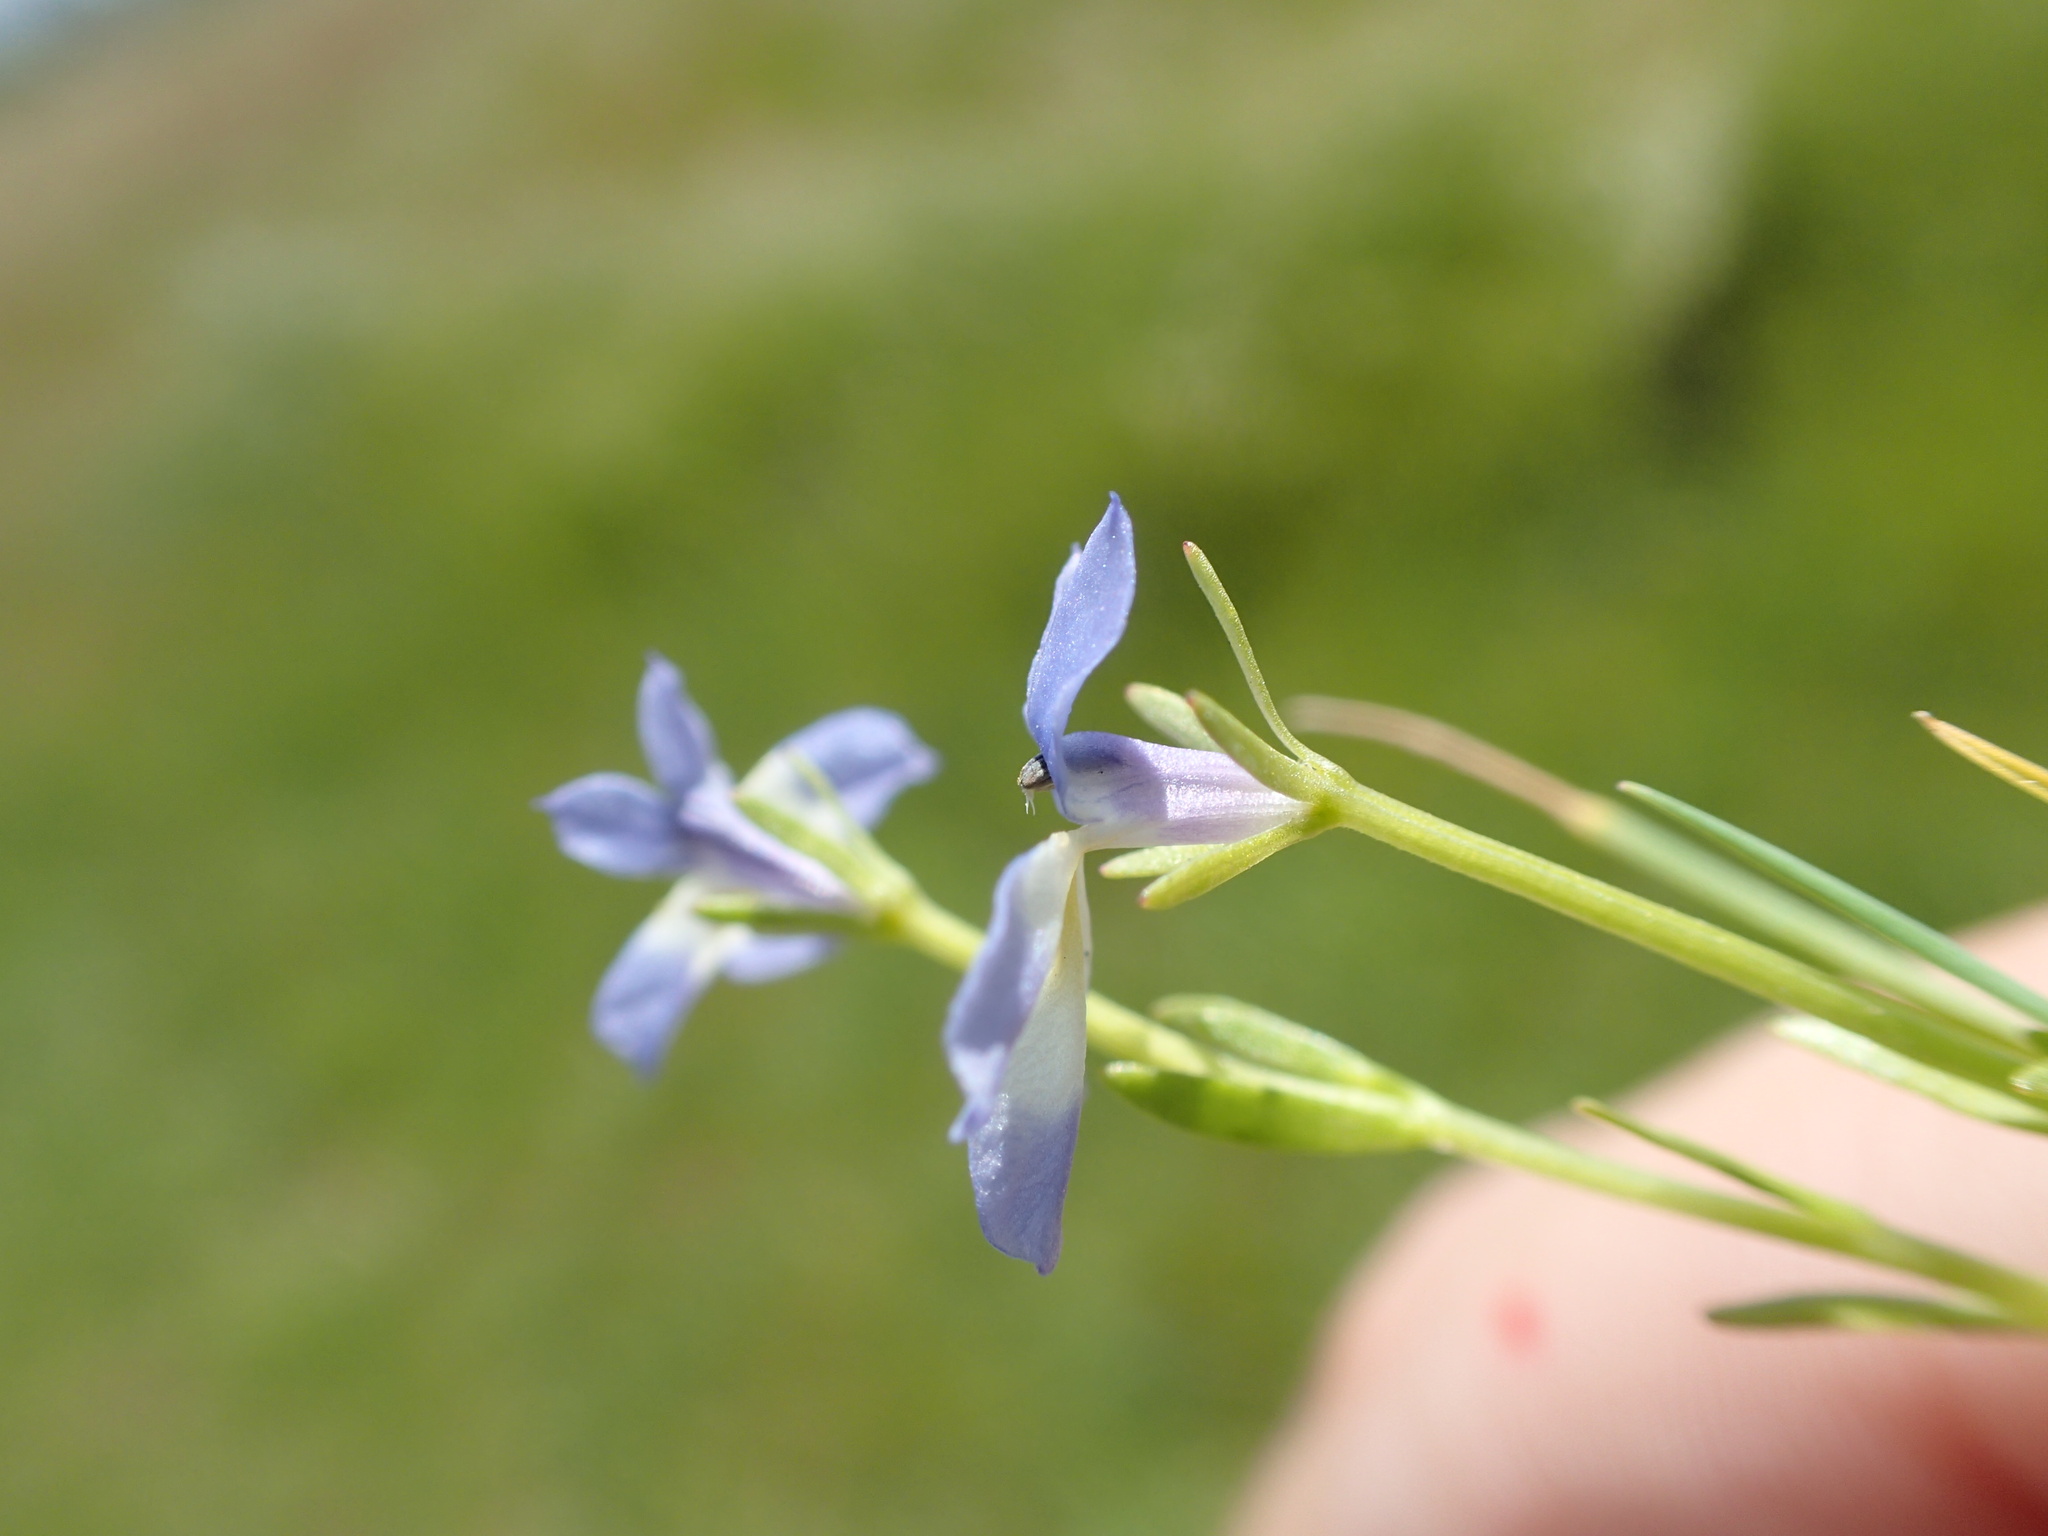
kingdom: Plantae
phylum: Tracheophyta
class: Magnoliopsida
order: Asterales
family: Campanulaceae
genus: Downingia
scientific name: Downingia cuspidata
